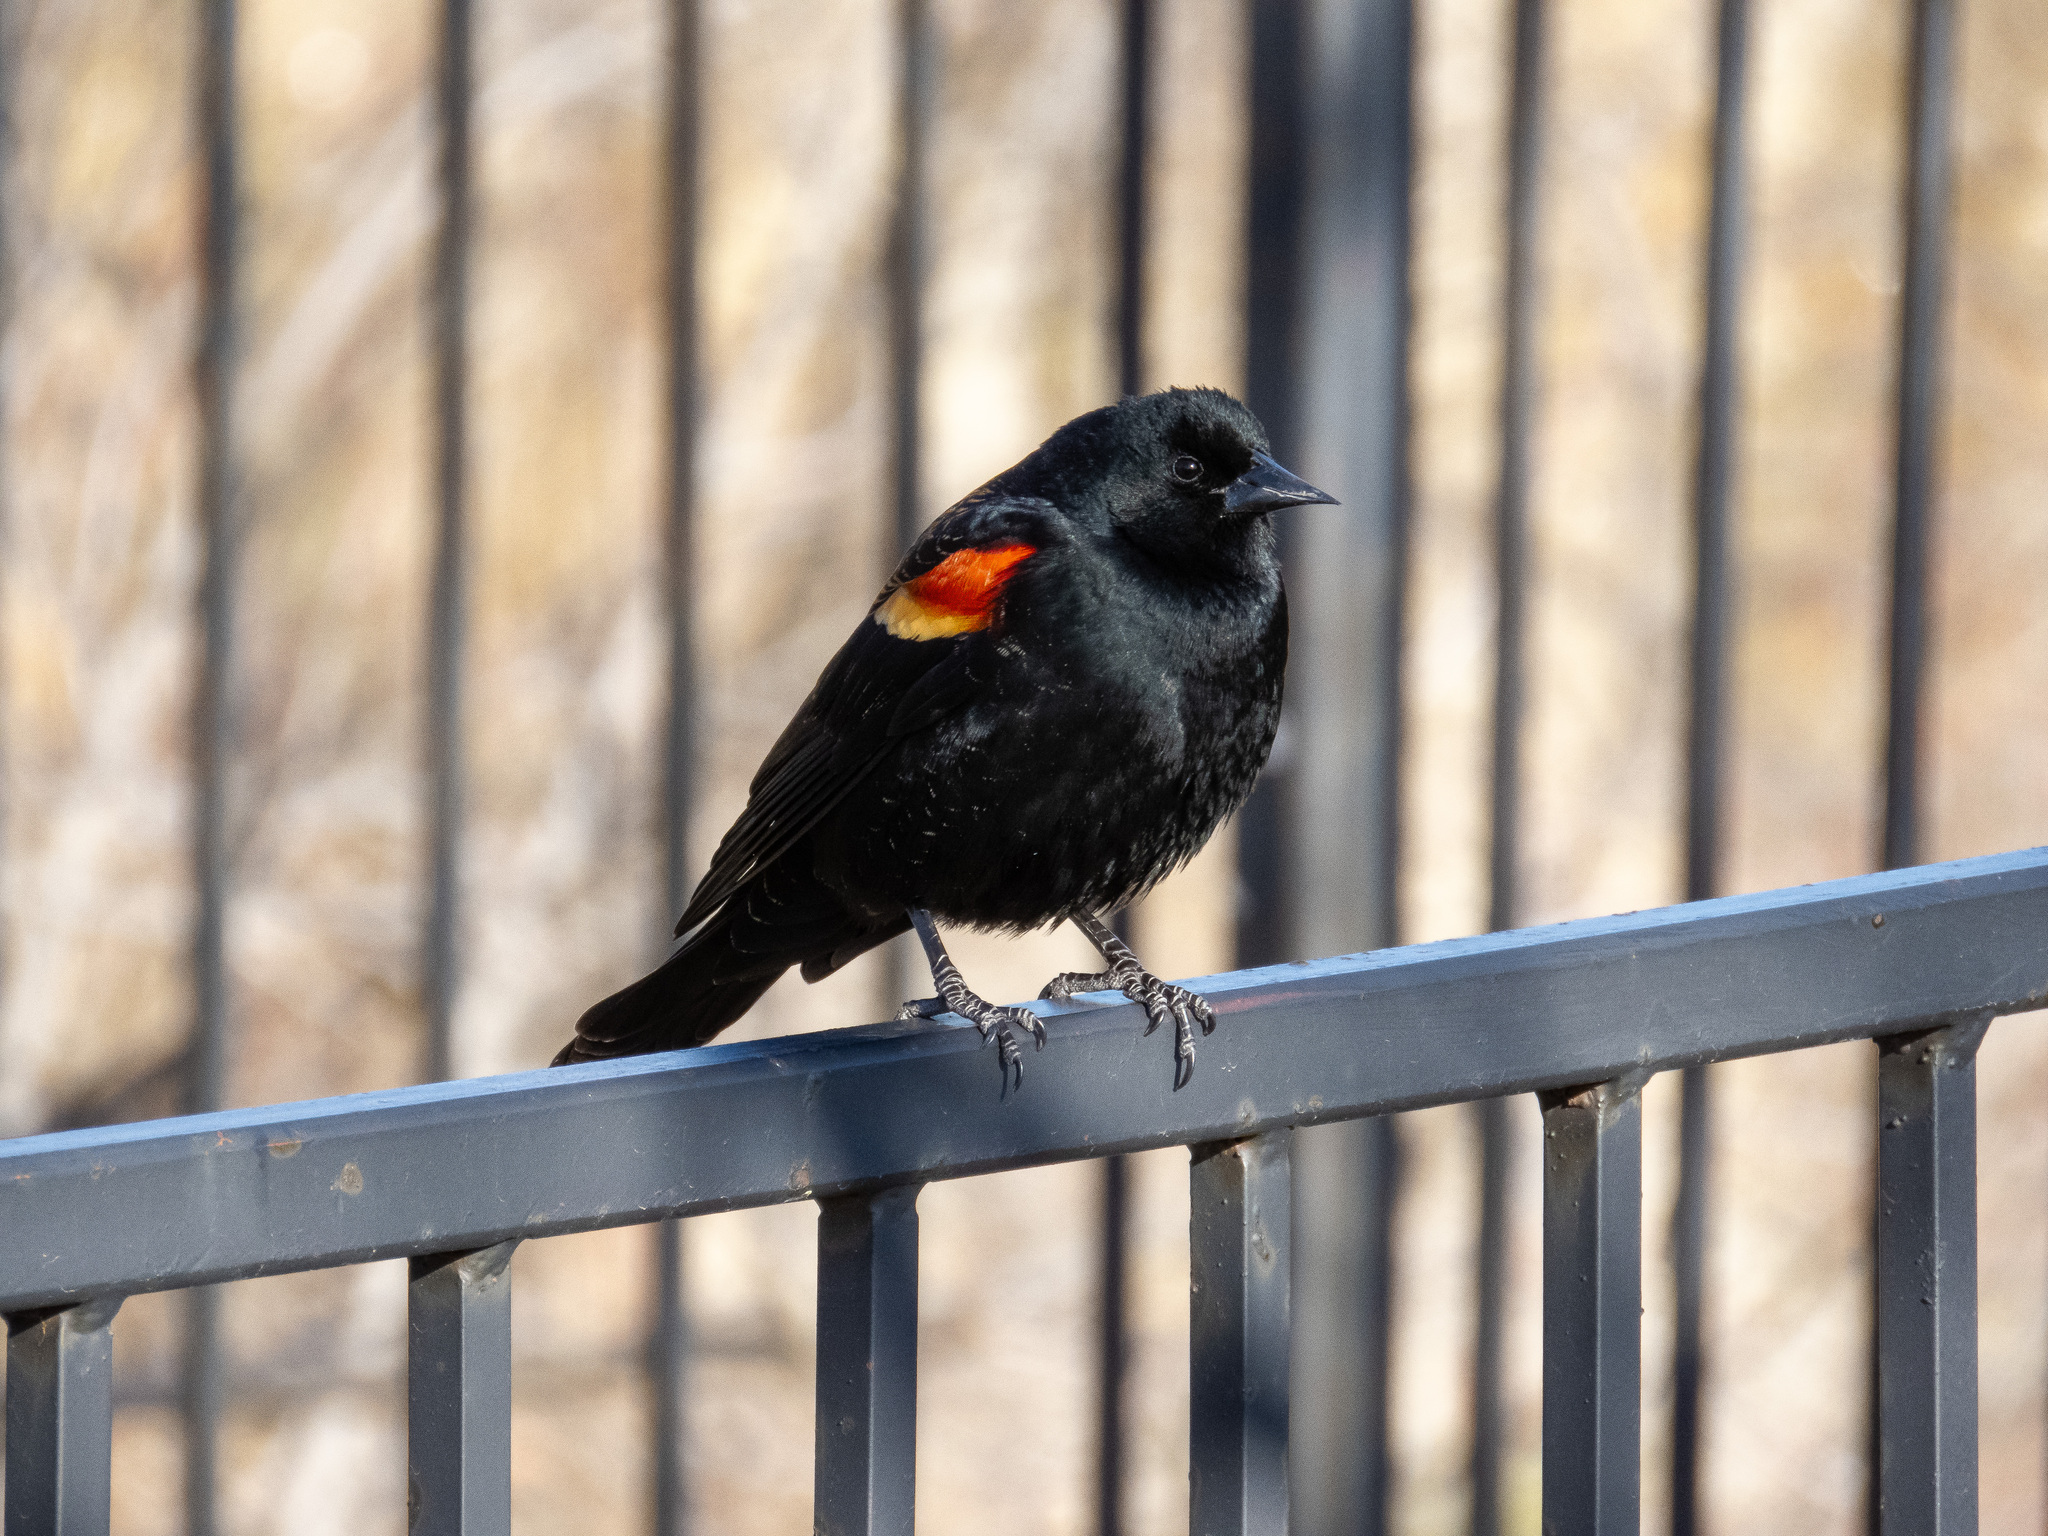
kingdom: Animalia
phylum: Chordata
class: Aves
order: Passeriformes
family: Icteridae
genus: Agelaius
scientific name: Agelaius phoeniceus
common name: Red-winged blackbird
